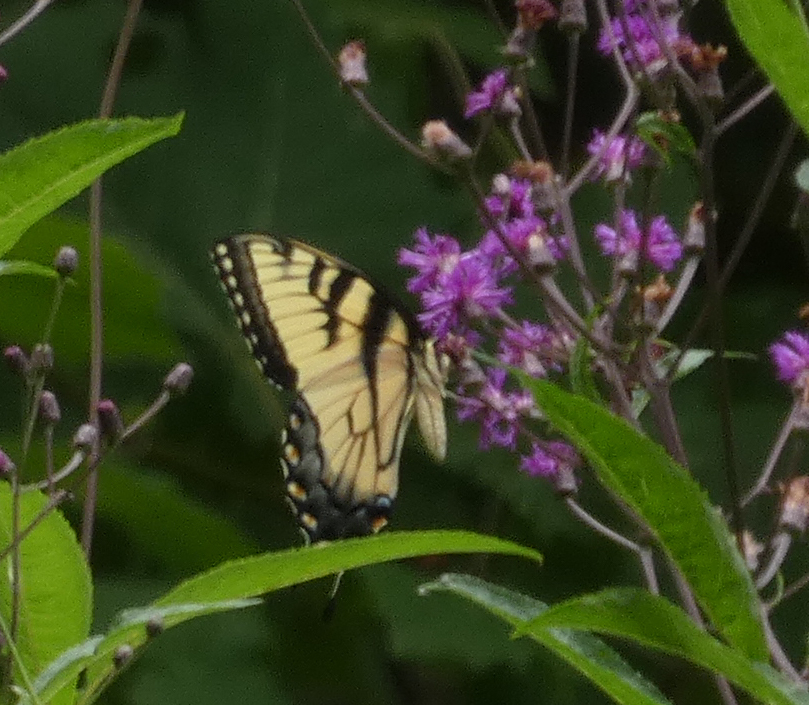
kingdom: Animalia
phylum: Arthropoda
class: Insecta
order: Lepidoptera
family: Papilionidae
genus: Papilio
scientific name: Papilio glaucus
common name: Tiger swallowtail
